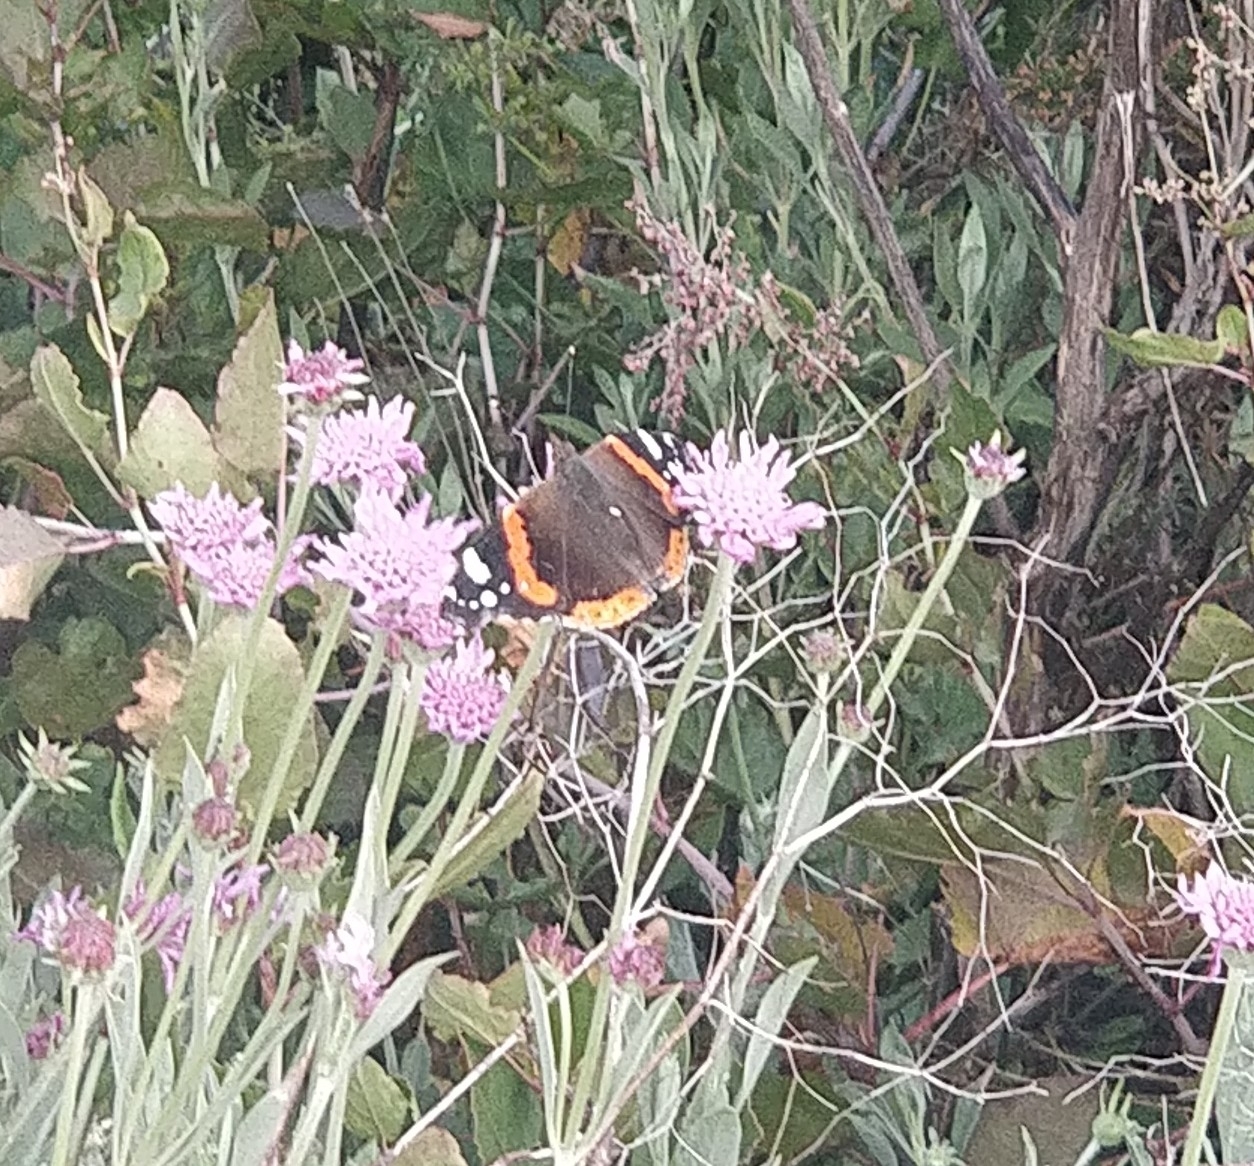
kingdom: Animalia
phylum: Arthropoda
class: Insecta
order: Lepidoptera
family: Nymphalidae
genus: Vanessa
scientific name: Vanessa atalanta
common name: Red admiral
